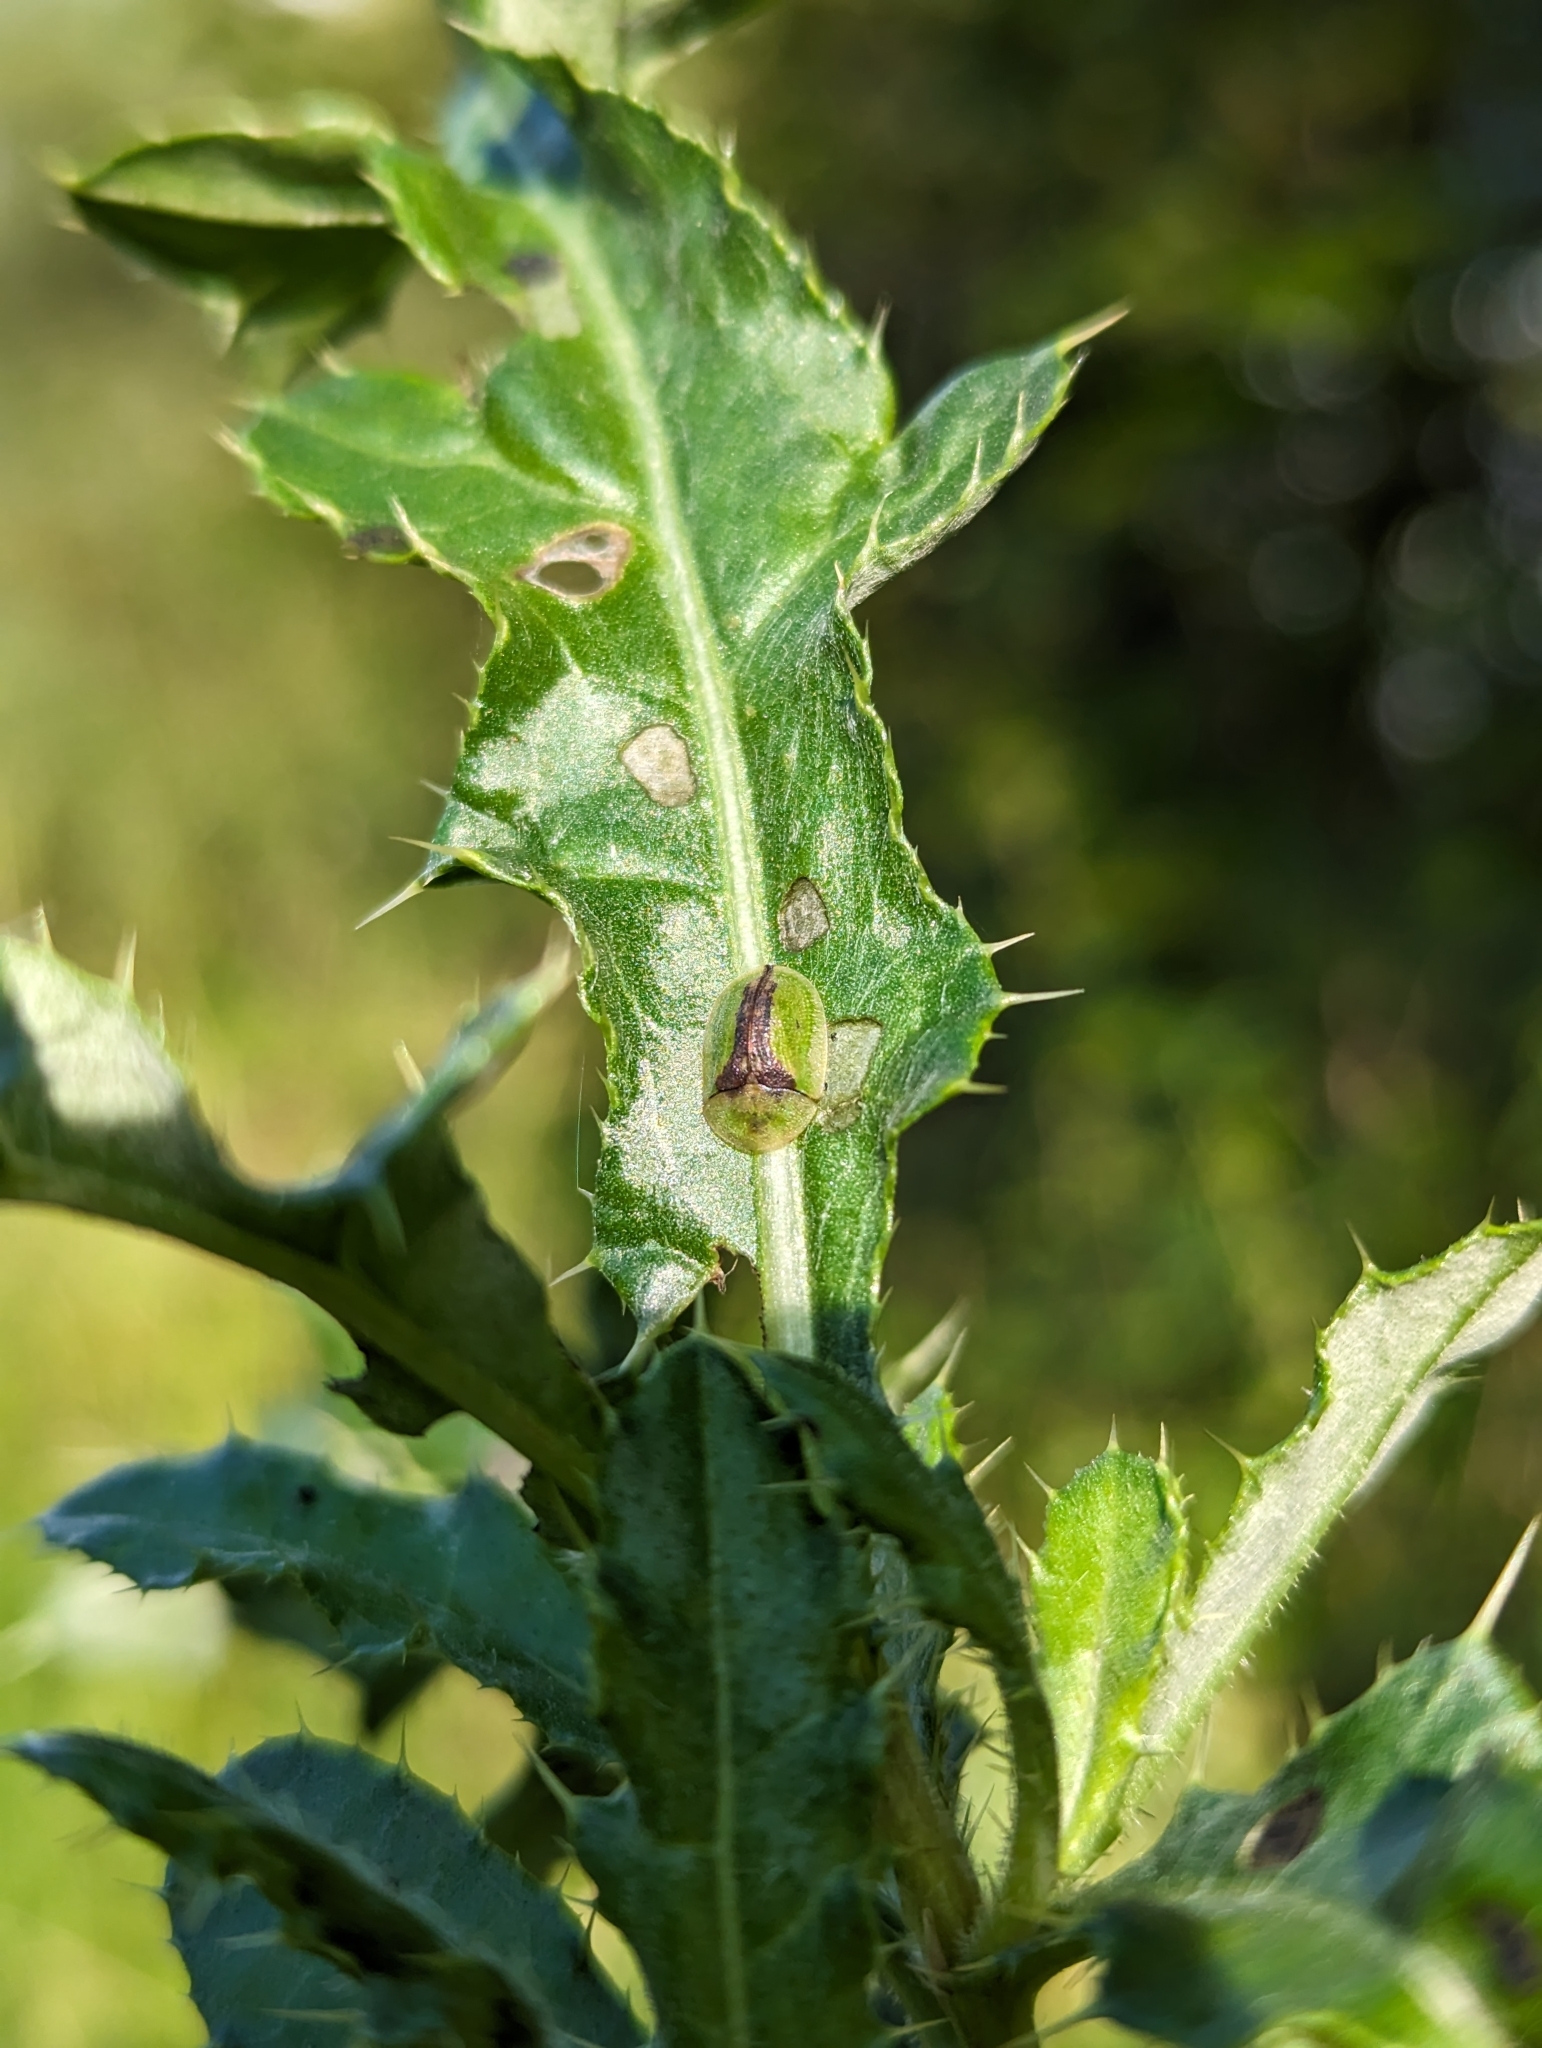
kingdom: Animalia
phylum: Arthropoda
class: Insecta
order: Coleoptera
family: Chrysomelidae
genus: Cassida
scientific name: Cassida vibex
